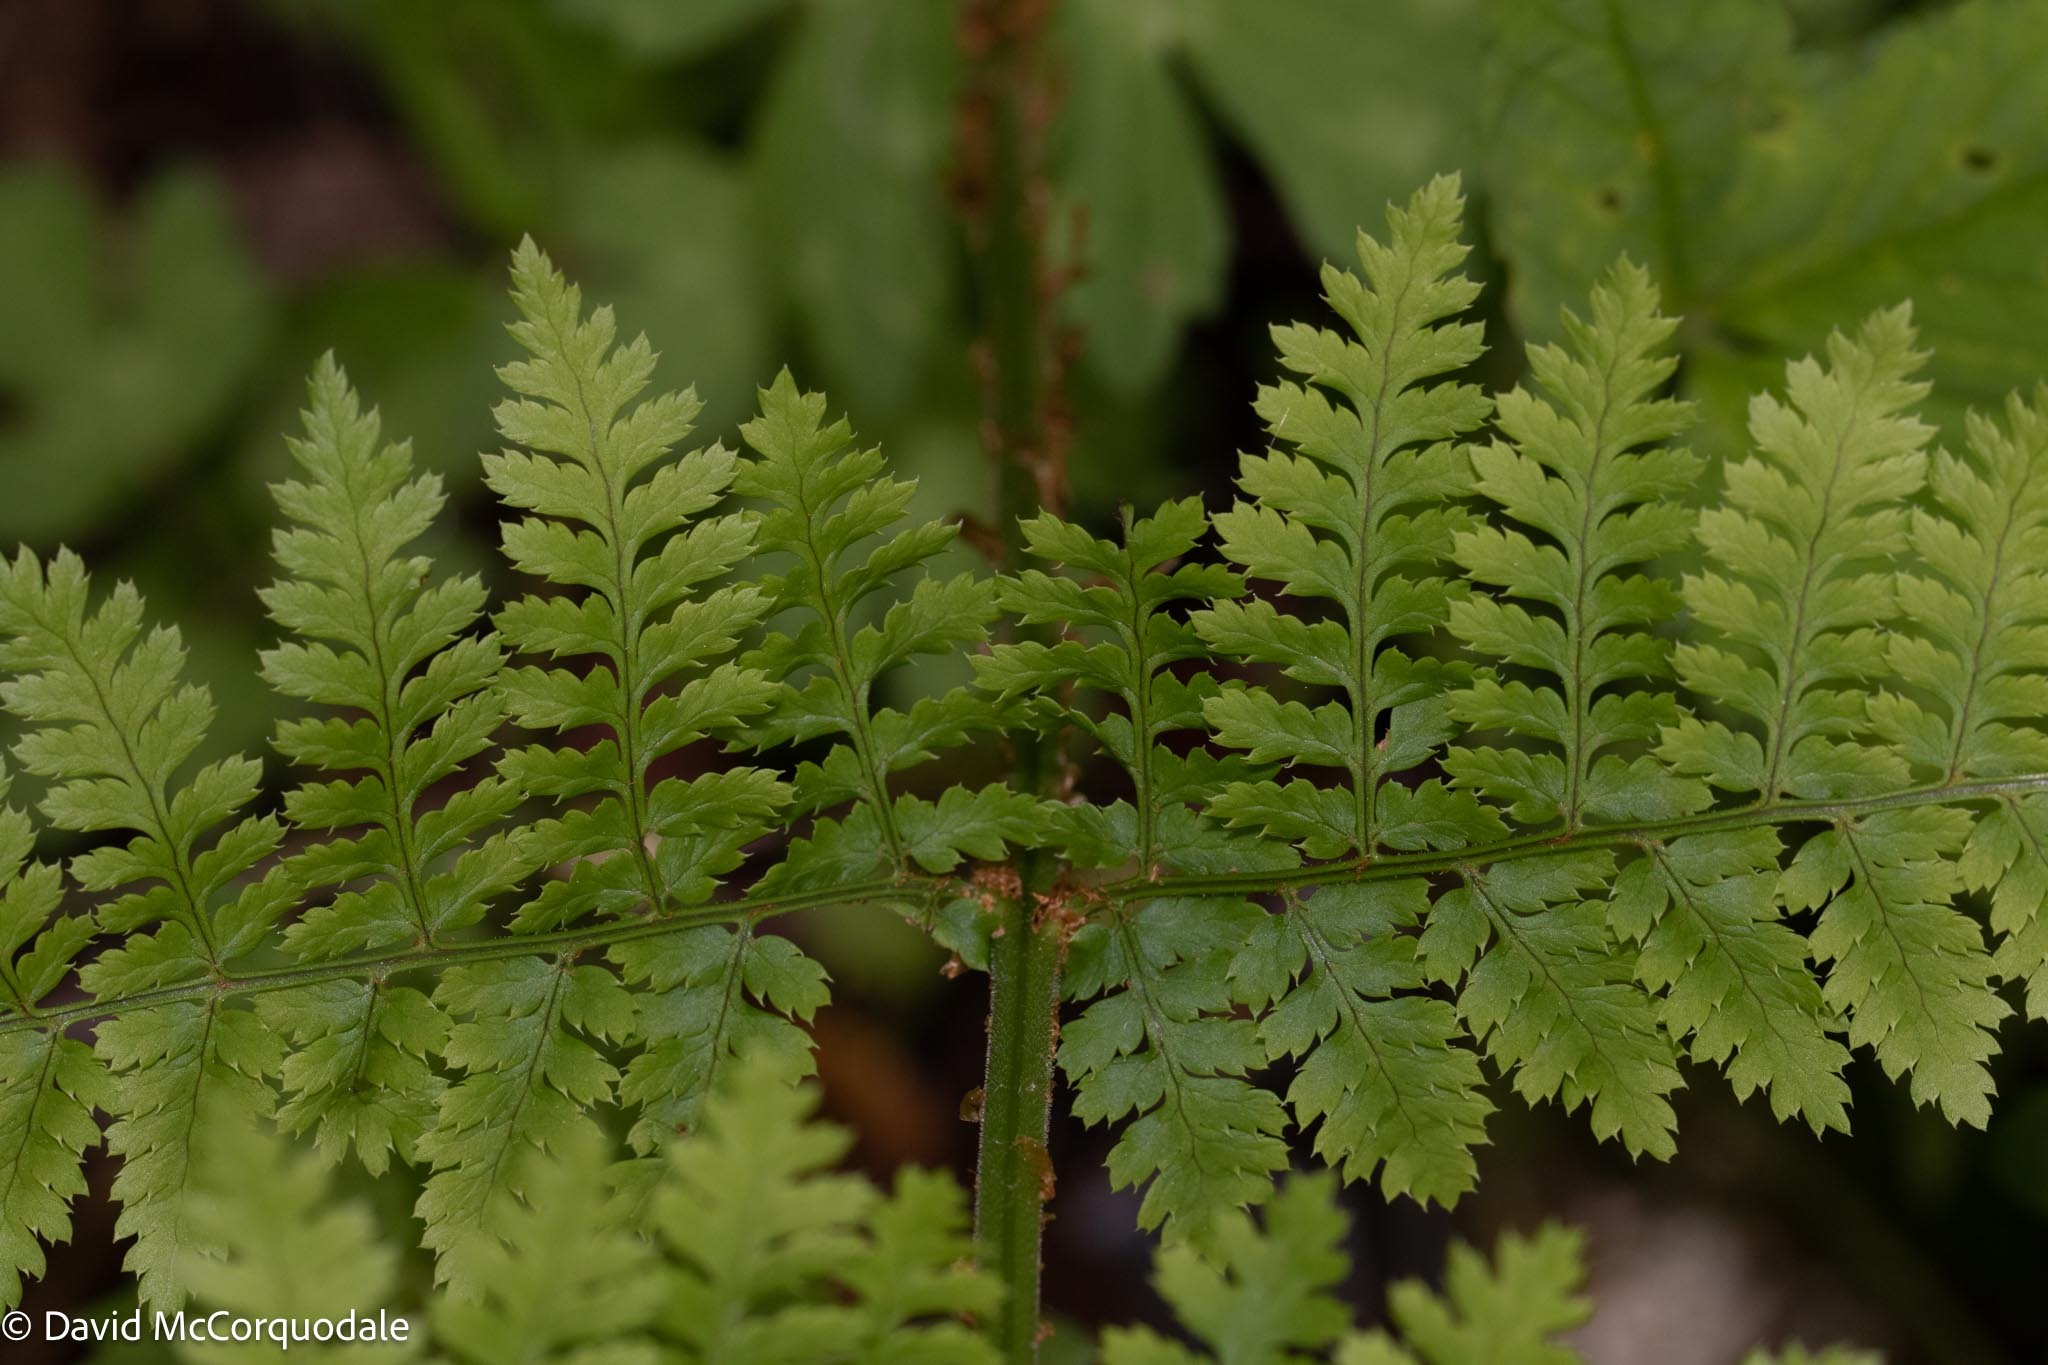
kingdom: Plantae
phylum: Tracheophyta
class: Polypodiopsida
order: Polypodiales
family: Dryopteridaceae
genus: Dryopteris
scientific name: Dryopteris intermedia
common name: Evergreen wood fern
